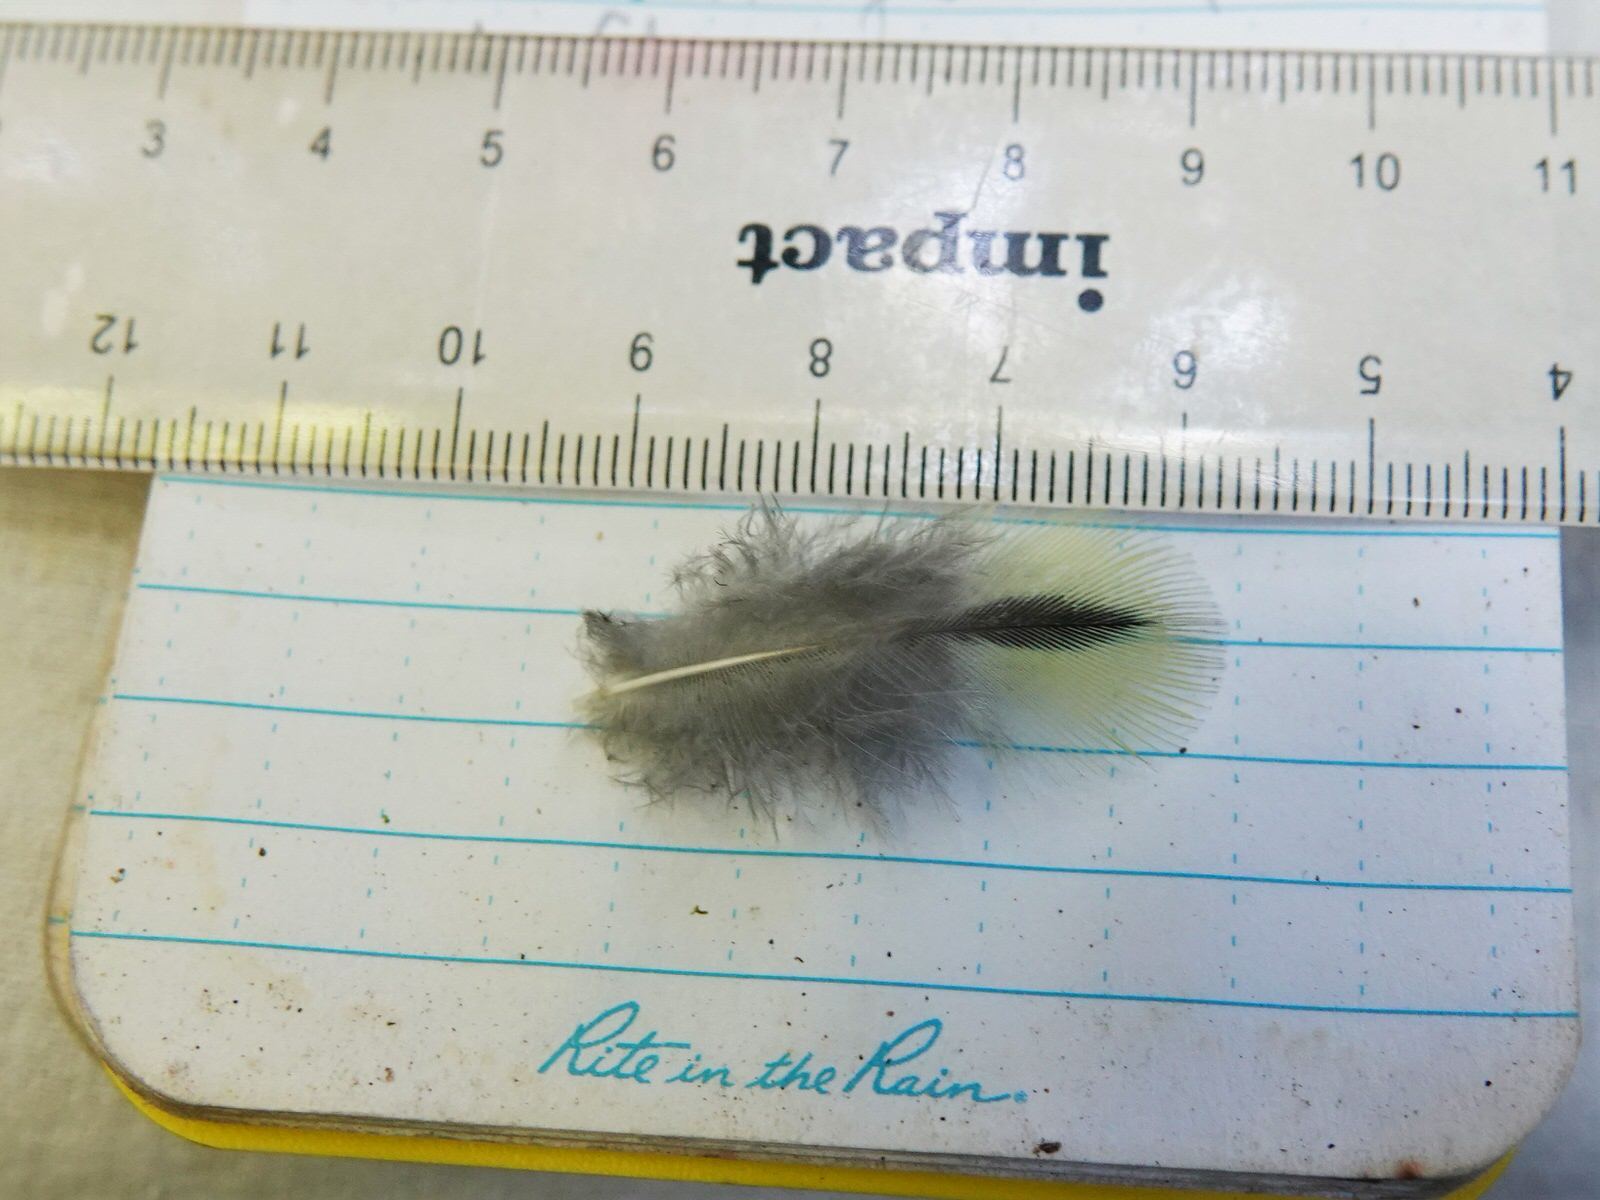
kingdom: Animalia
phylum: Chordata
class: Aves
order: Psittaciformes
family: Psittacidae
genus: Platycercus
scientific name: Platycercus eximius
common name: Eastern rosella
